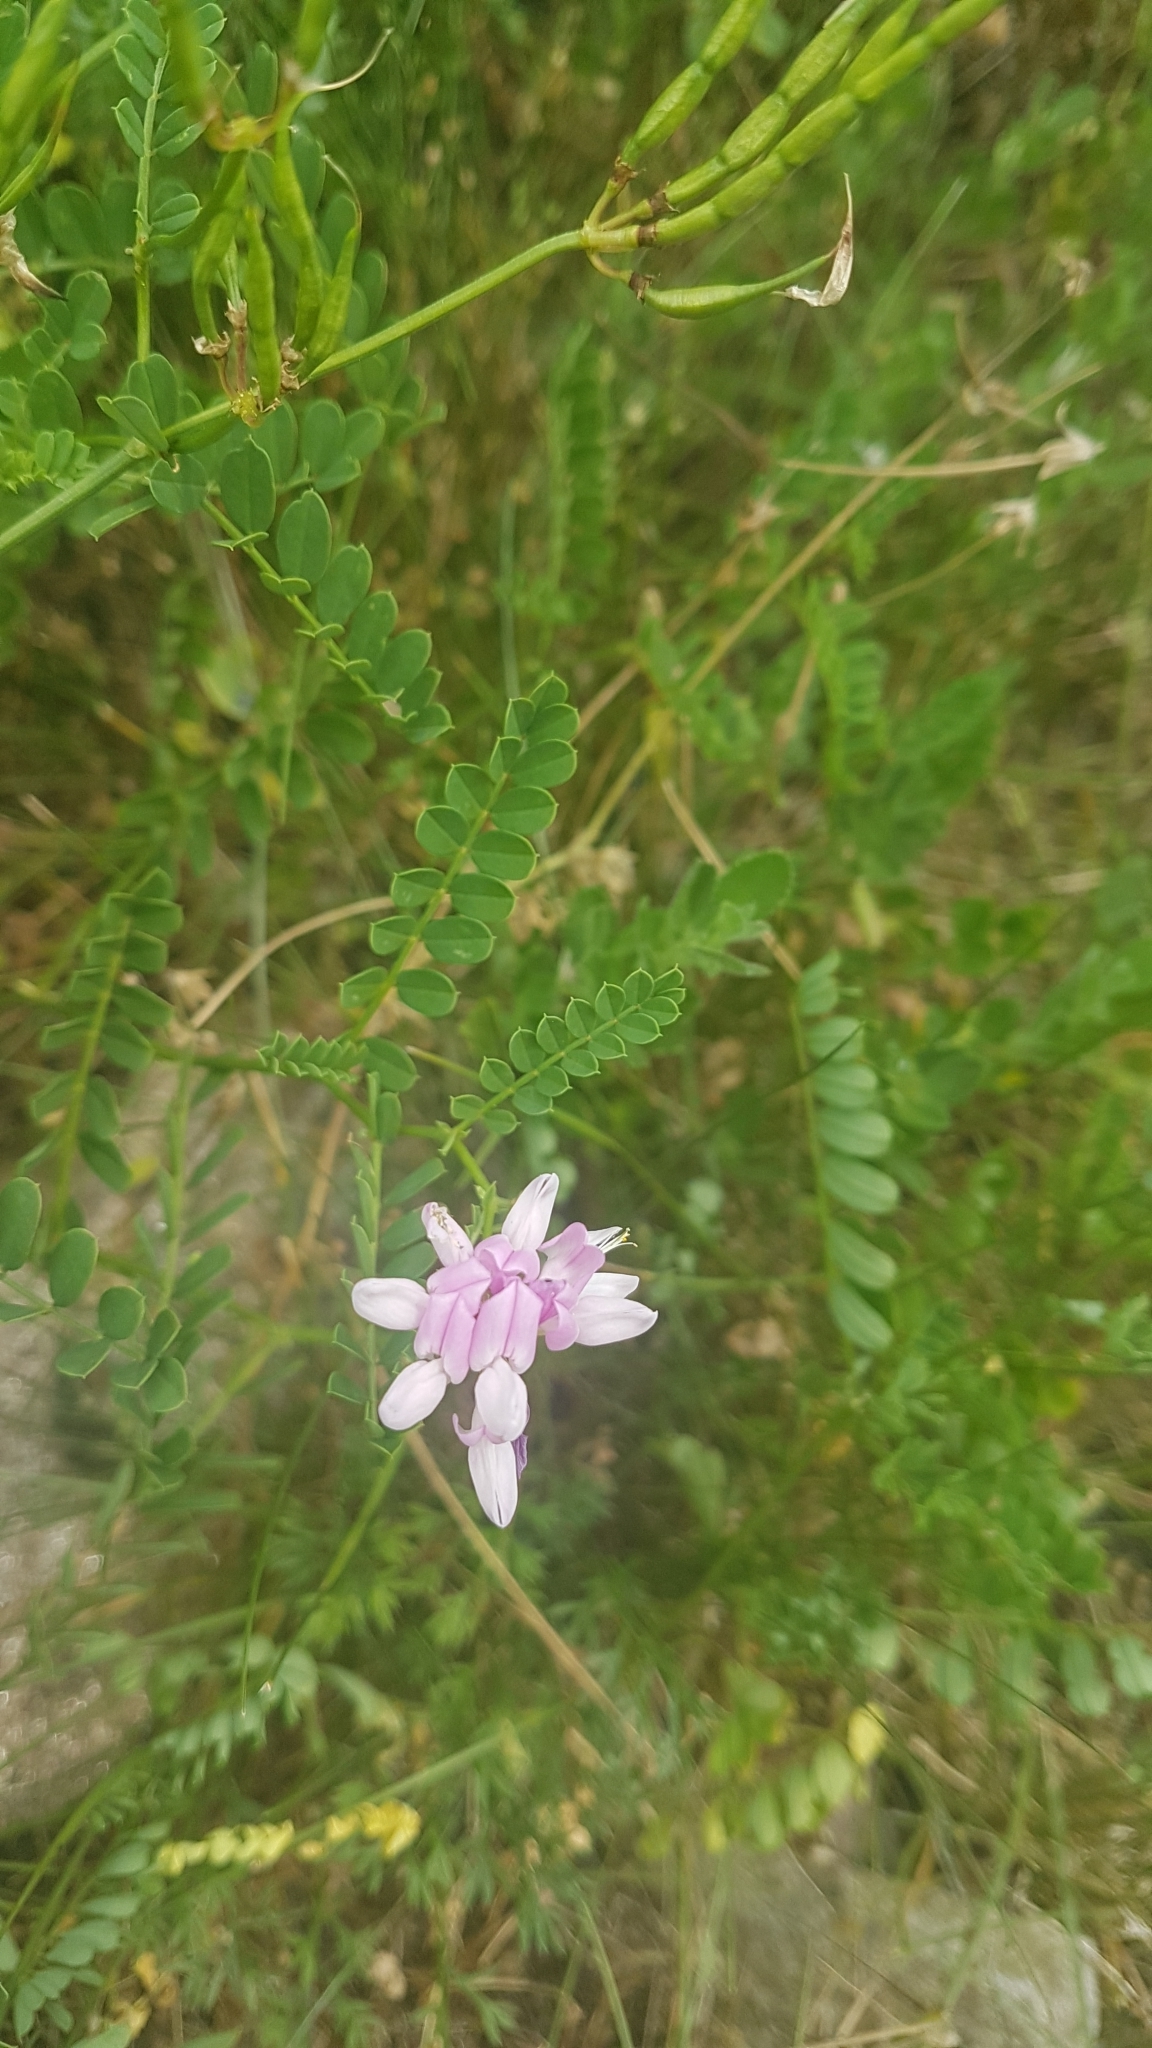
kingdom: Plantae
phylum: Tracheophyta
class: Magnoliopsida
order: Fabales
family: Fabaceae
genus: Coronilla
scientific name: Coronilla varia
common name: Crownvetch
